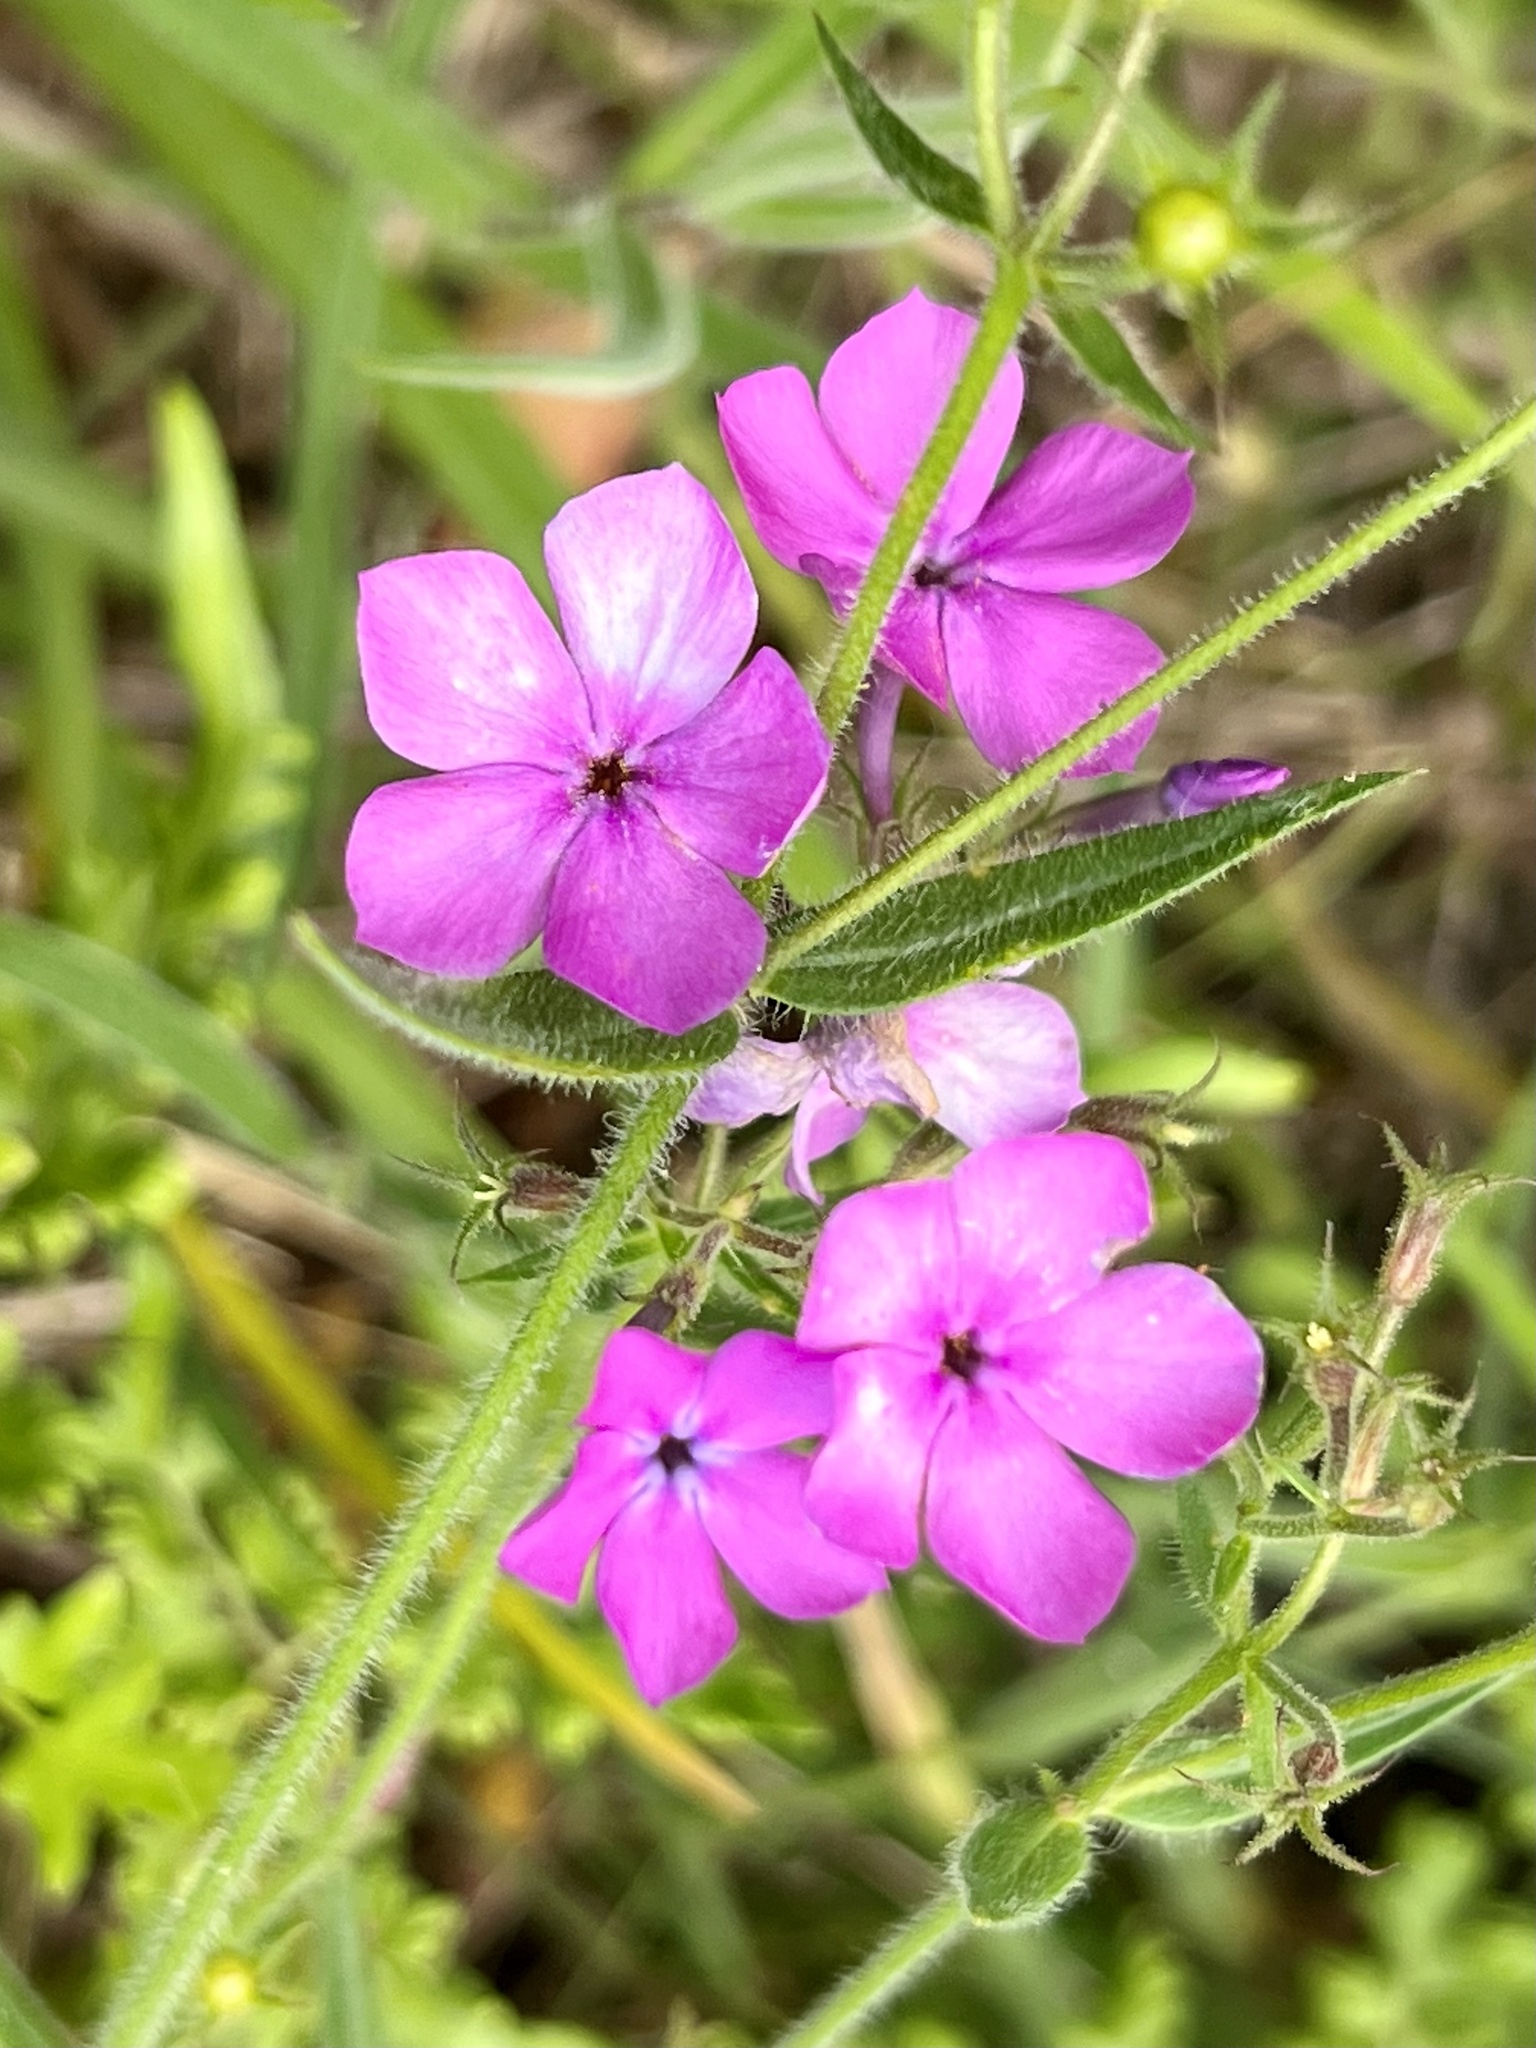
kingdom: Plantae
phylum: Tracheophyta
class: Magnoliopsida
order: Ericales
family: Polemoniaceae
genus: Phlox
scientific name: Phlox pilosa
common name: Prairie phlox
